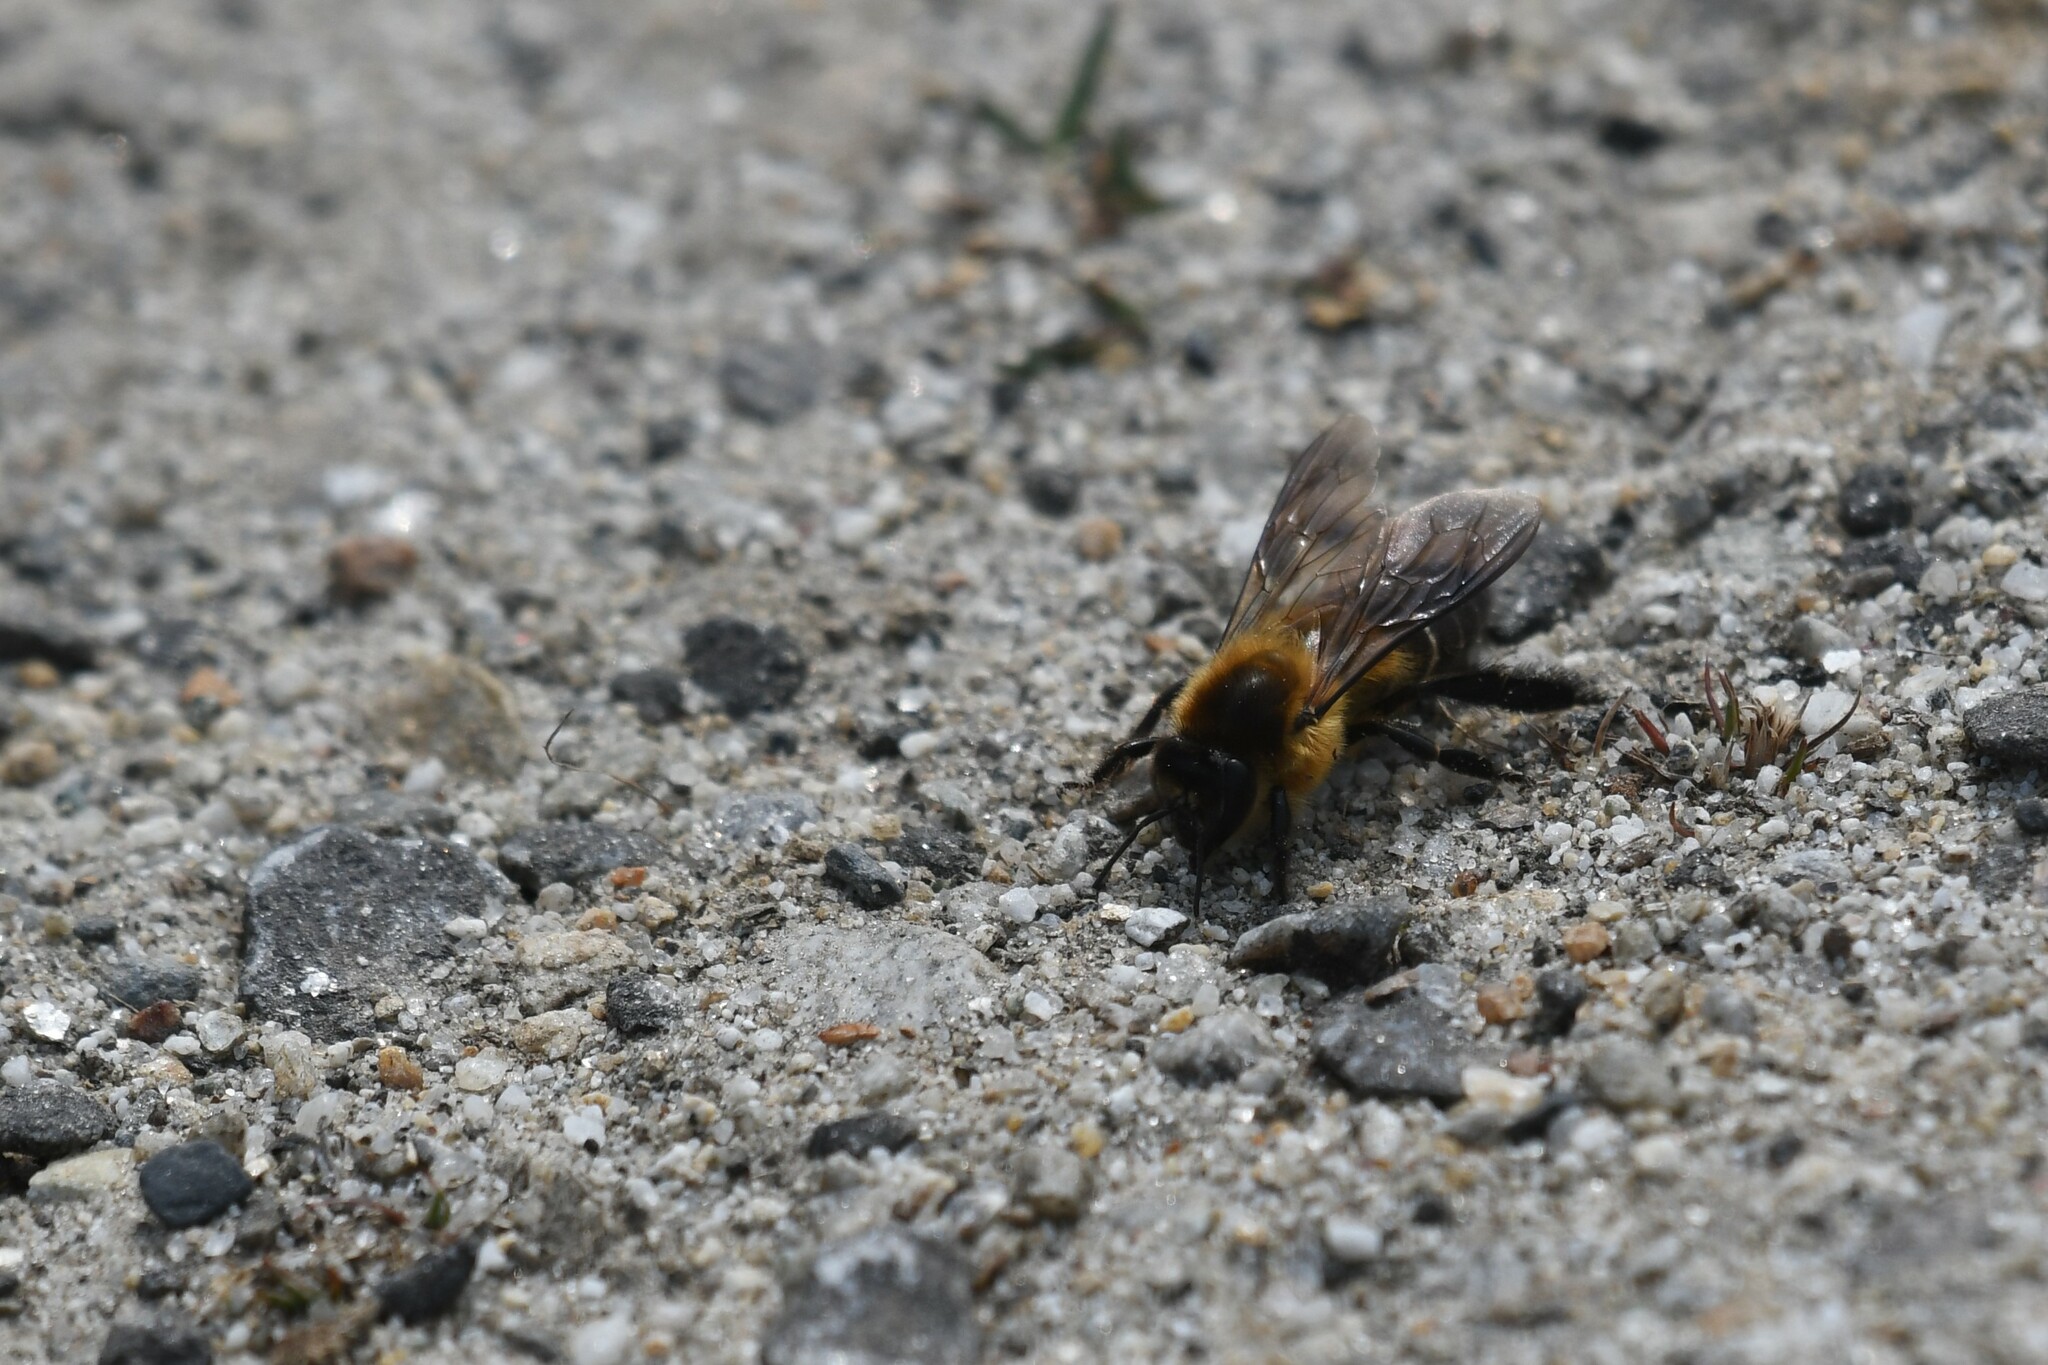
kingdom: Animalia
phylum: Arthropoda
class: Insecta
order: Hymenoptera
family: Apidae
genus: Apis
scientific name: Apis laboriosa
